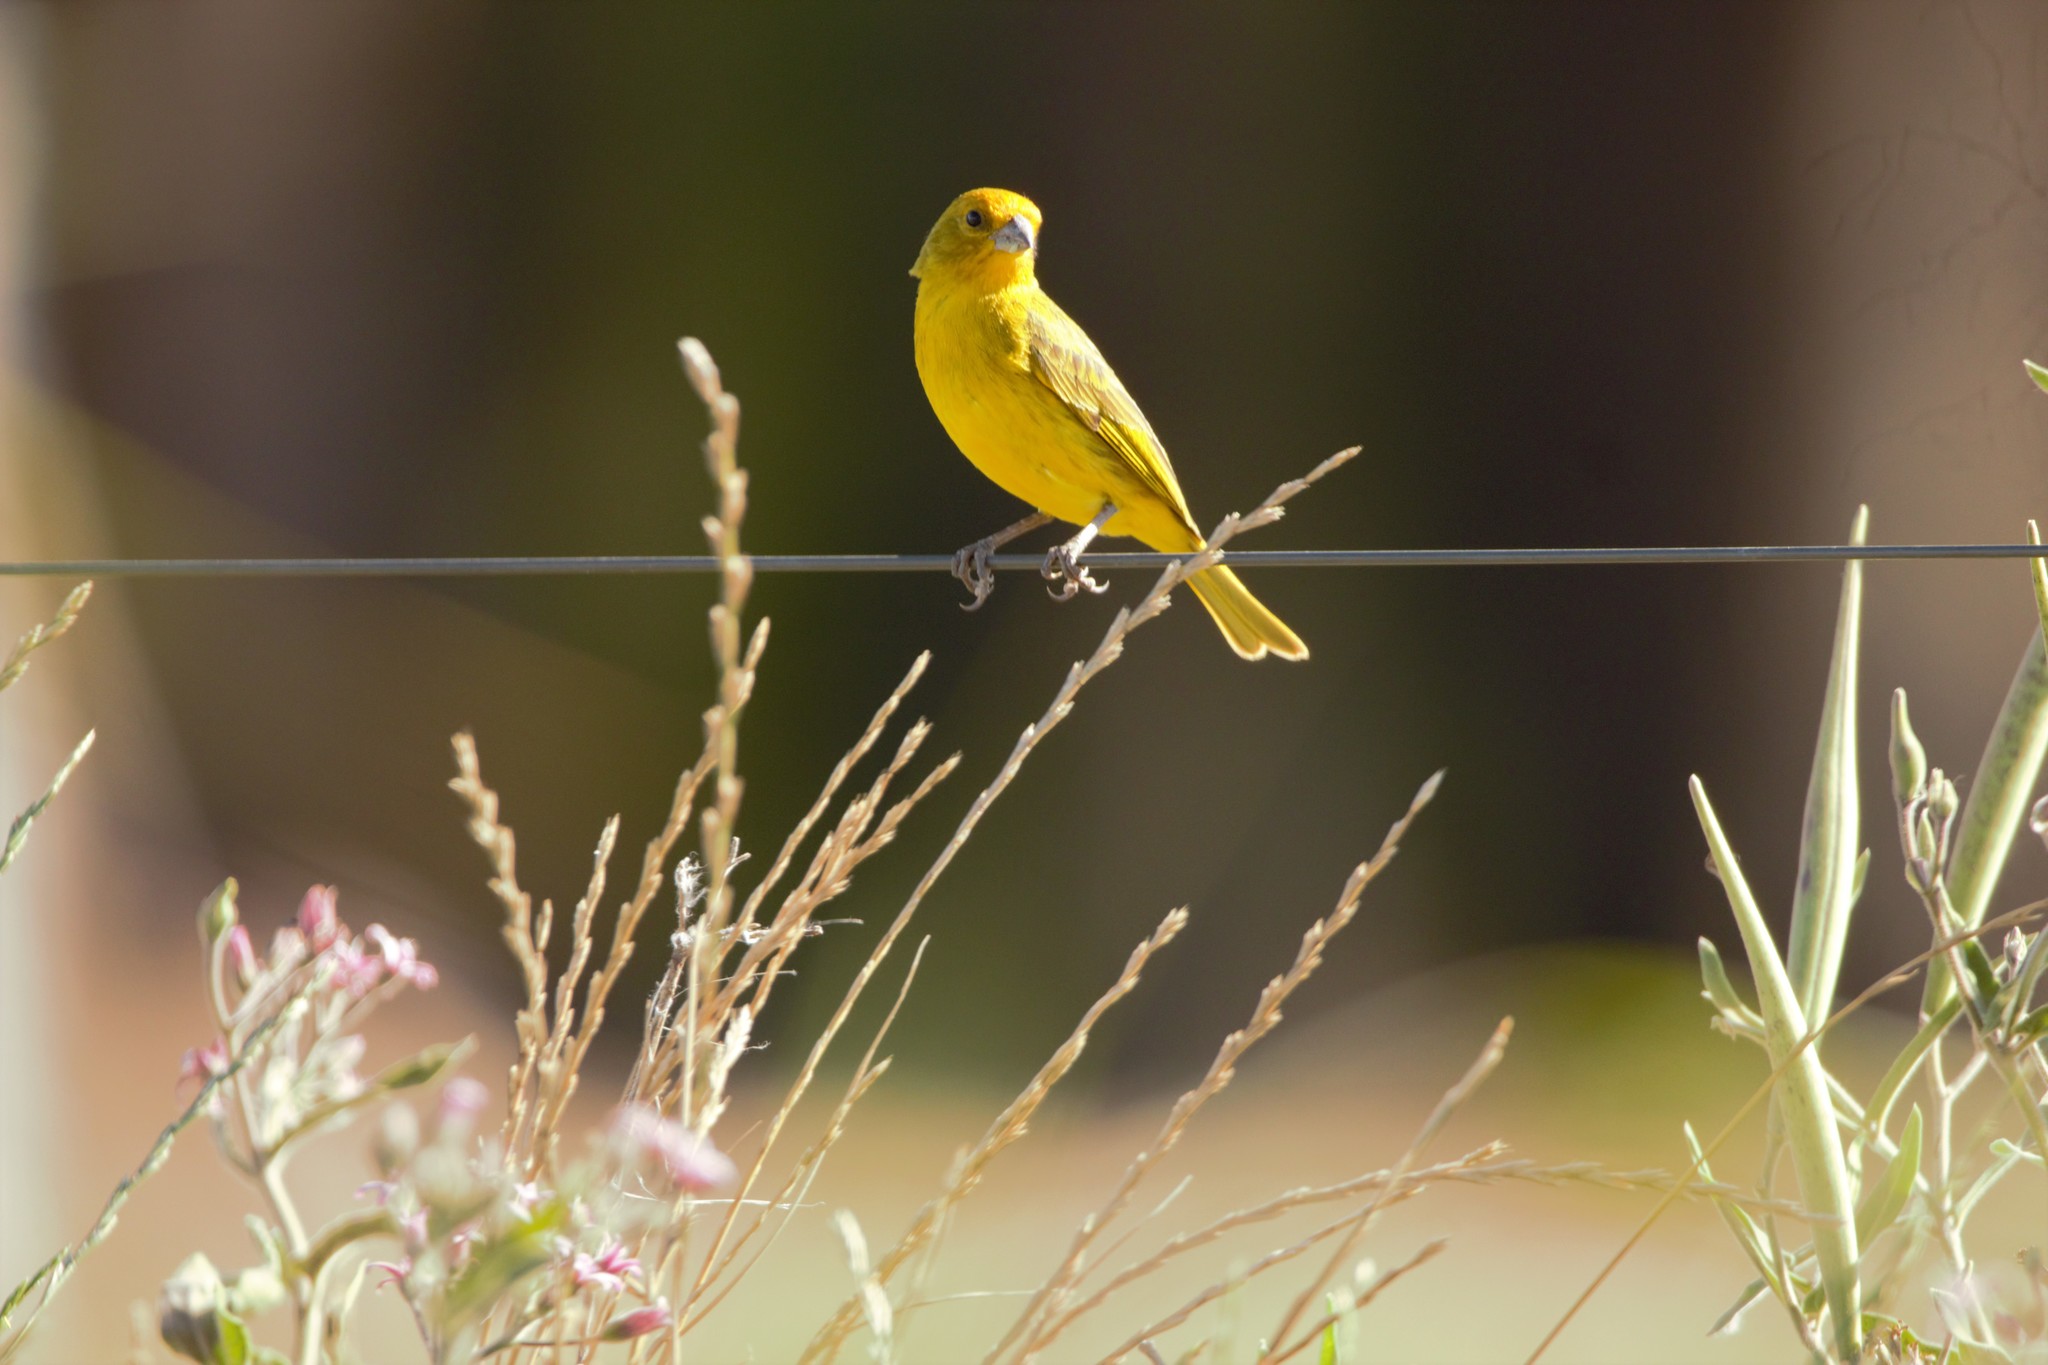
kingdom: Animalia
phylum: Chordata
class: Aves
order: Passeriformes
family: Thraupidae
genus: Sicalis
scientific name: Sicalis flaveola
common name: Saffron finch
